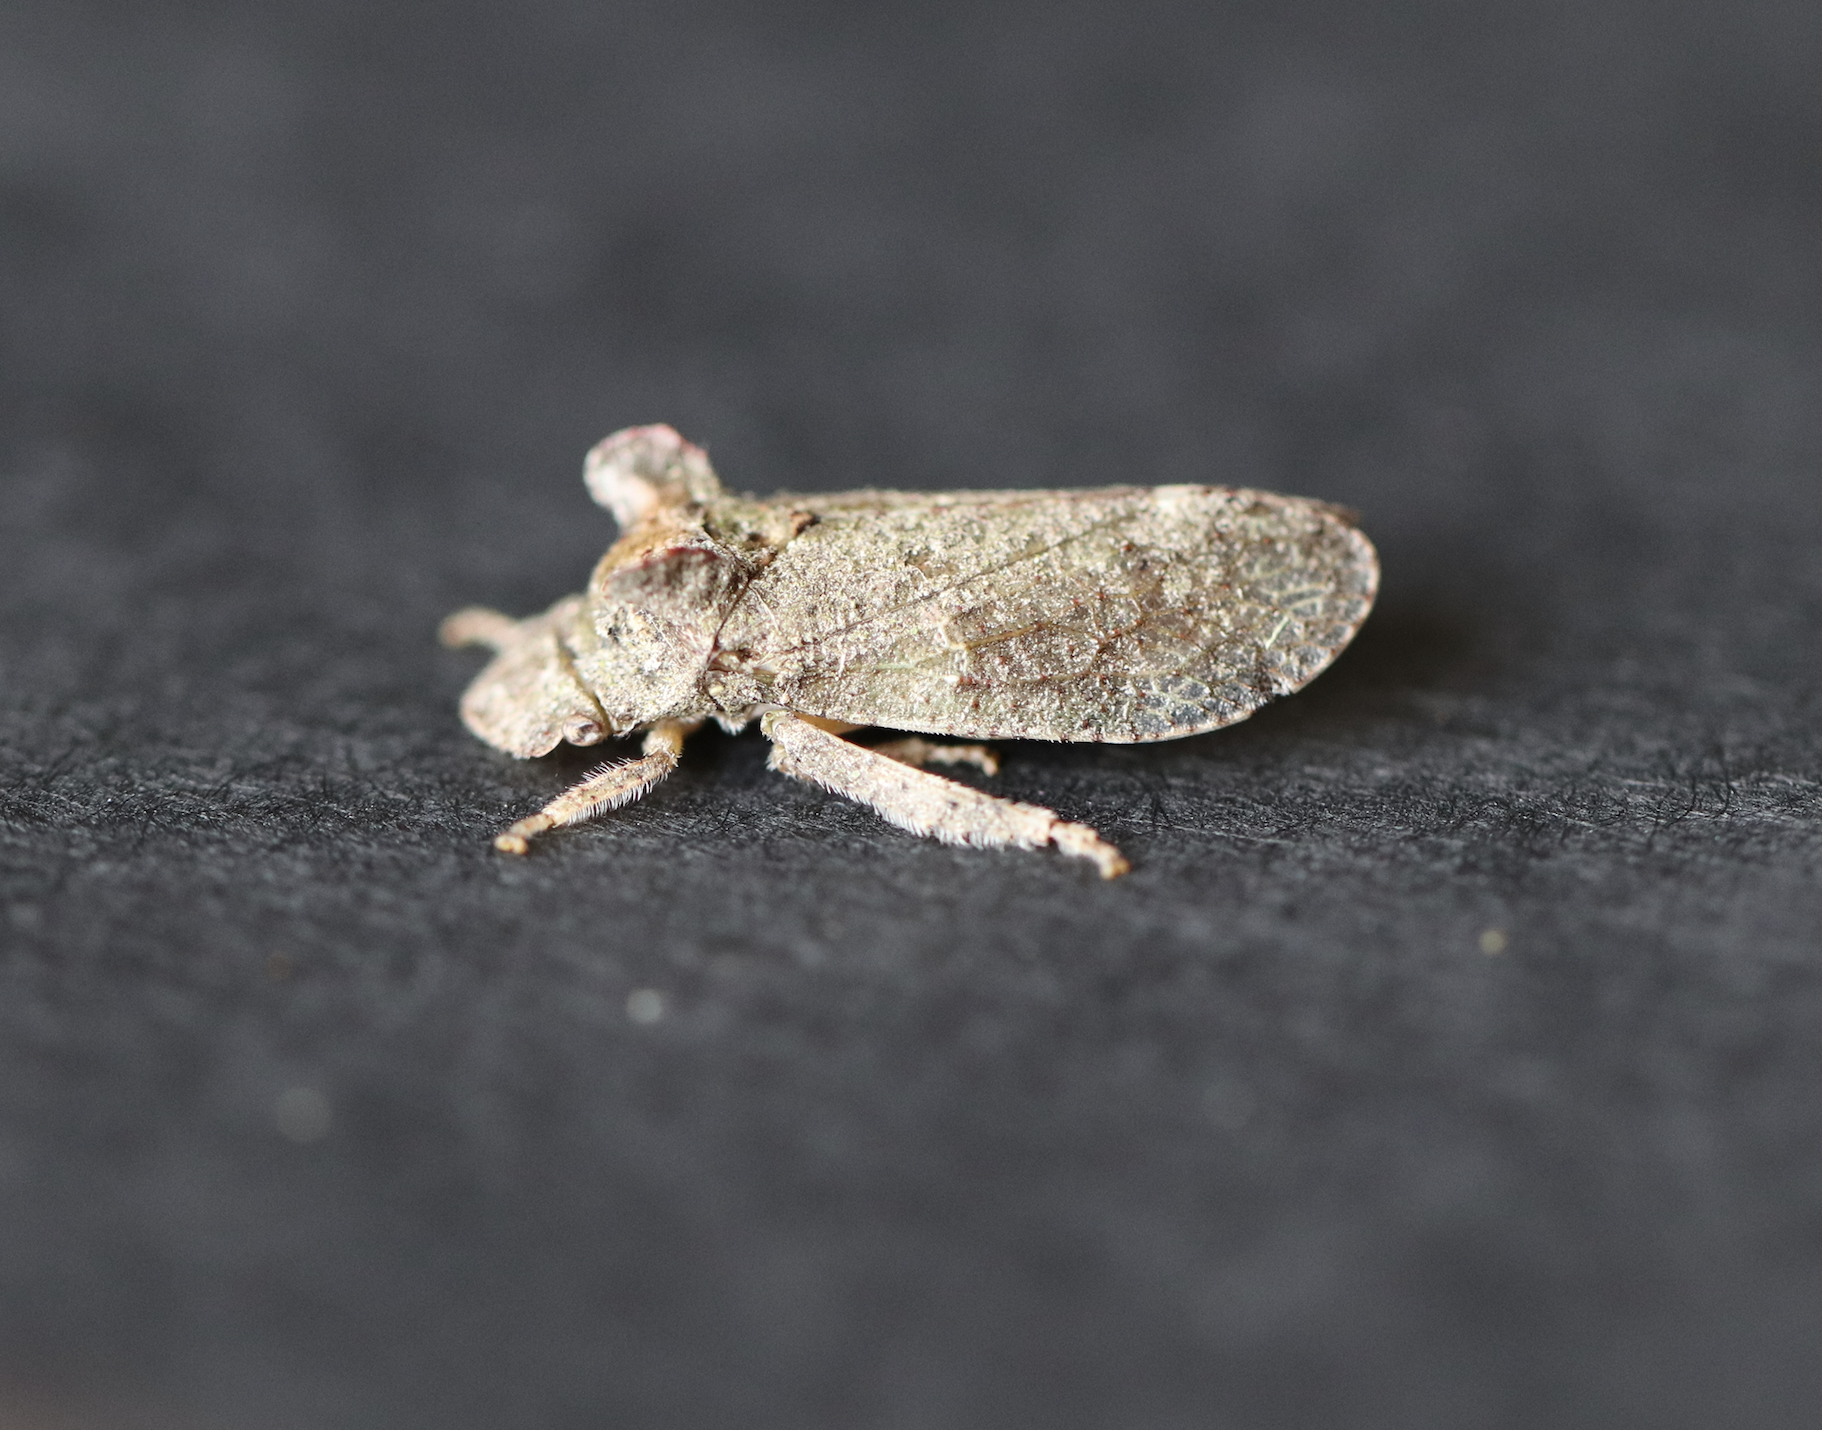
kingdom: Animalia
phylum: Arthropoda
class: Insecta
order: Hemiptera
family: Cicadellidae
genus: Ledra
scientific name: Ledra aurita
